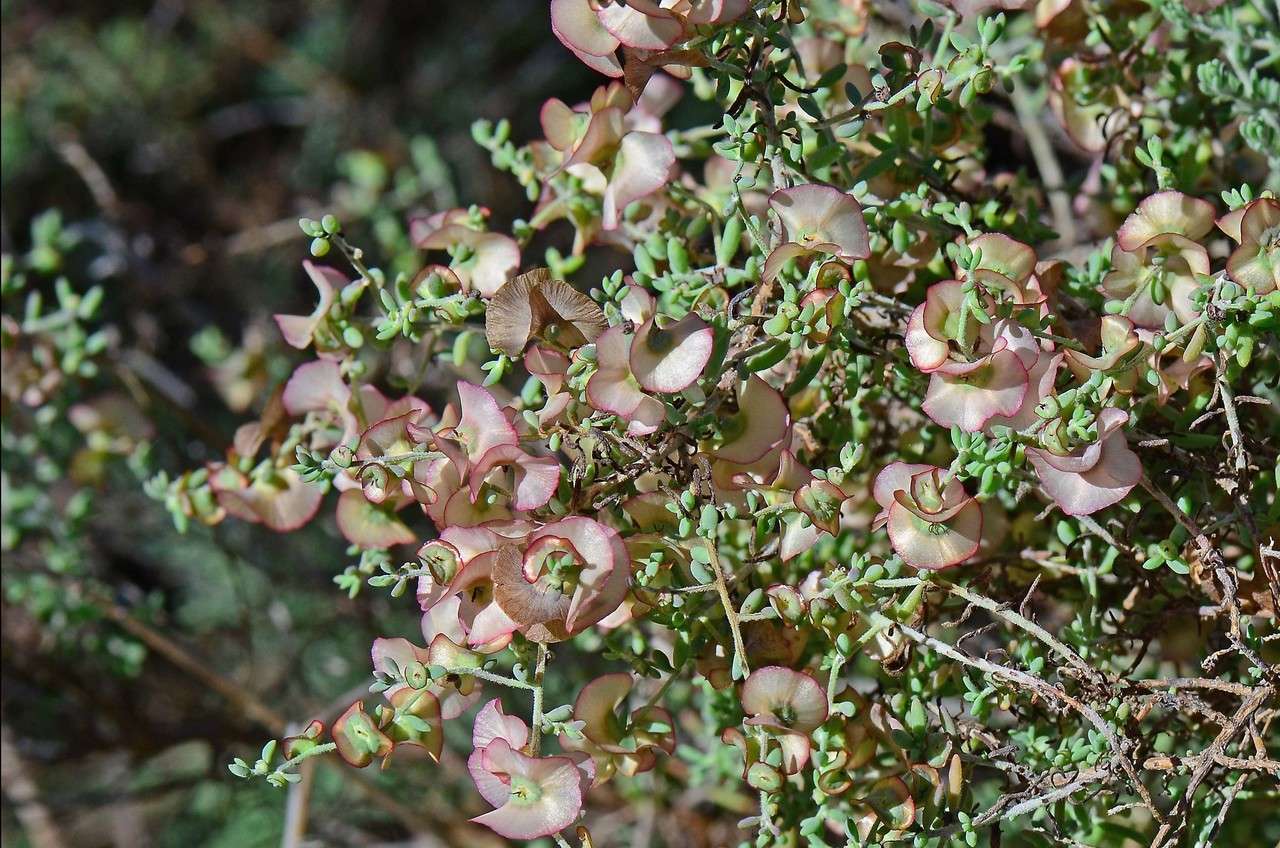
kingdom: Plantae
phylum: Tracheophyta
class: Magnoliopsida
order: Caryophyllales
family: Amaranthaceae
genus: Maireana
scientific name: Maireana rohrlachii
